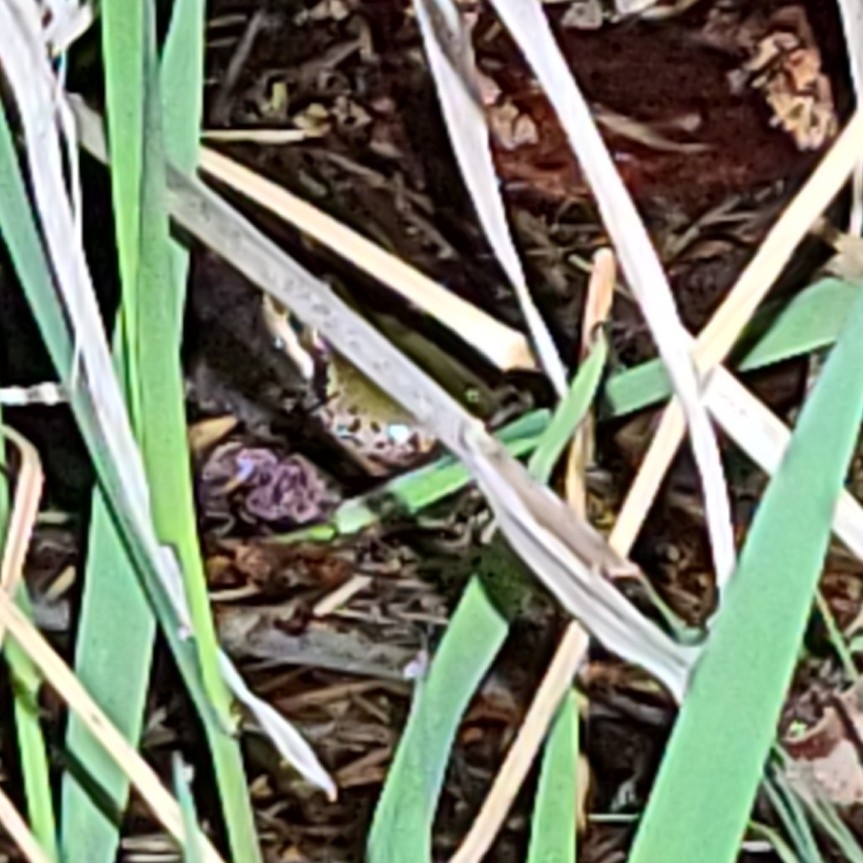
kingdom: Animalia
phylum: Chordata
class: Amphibia
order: Anura
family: Hylidae
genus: Pseudacris
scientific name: Pseudacris regilla
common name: Pacific chorus frog
